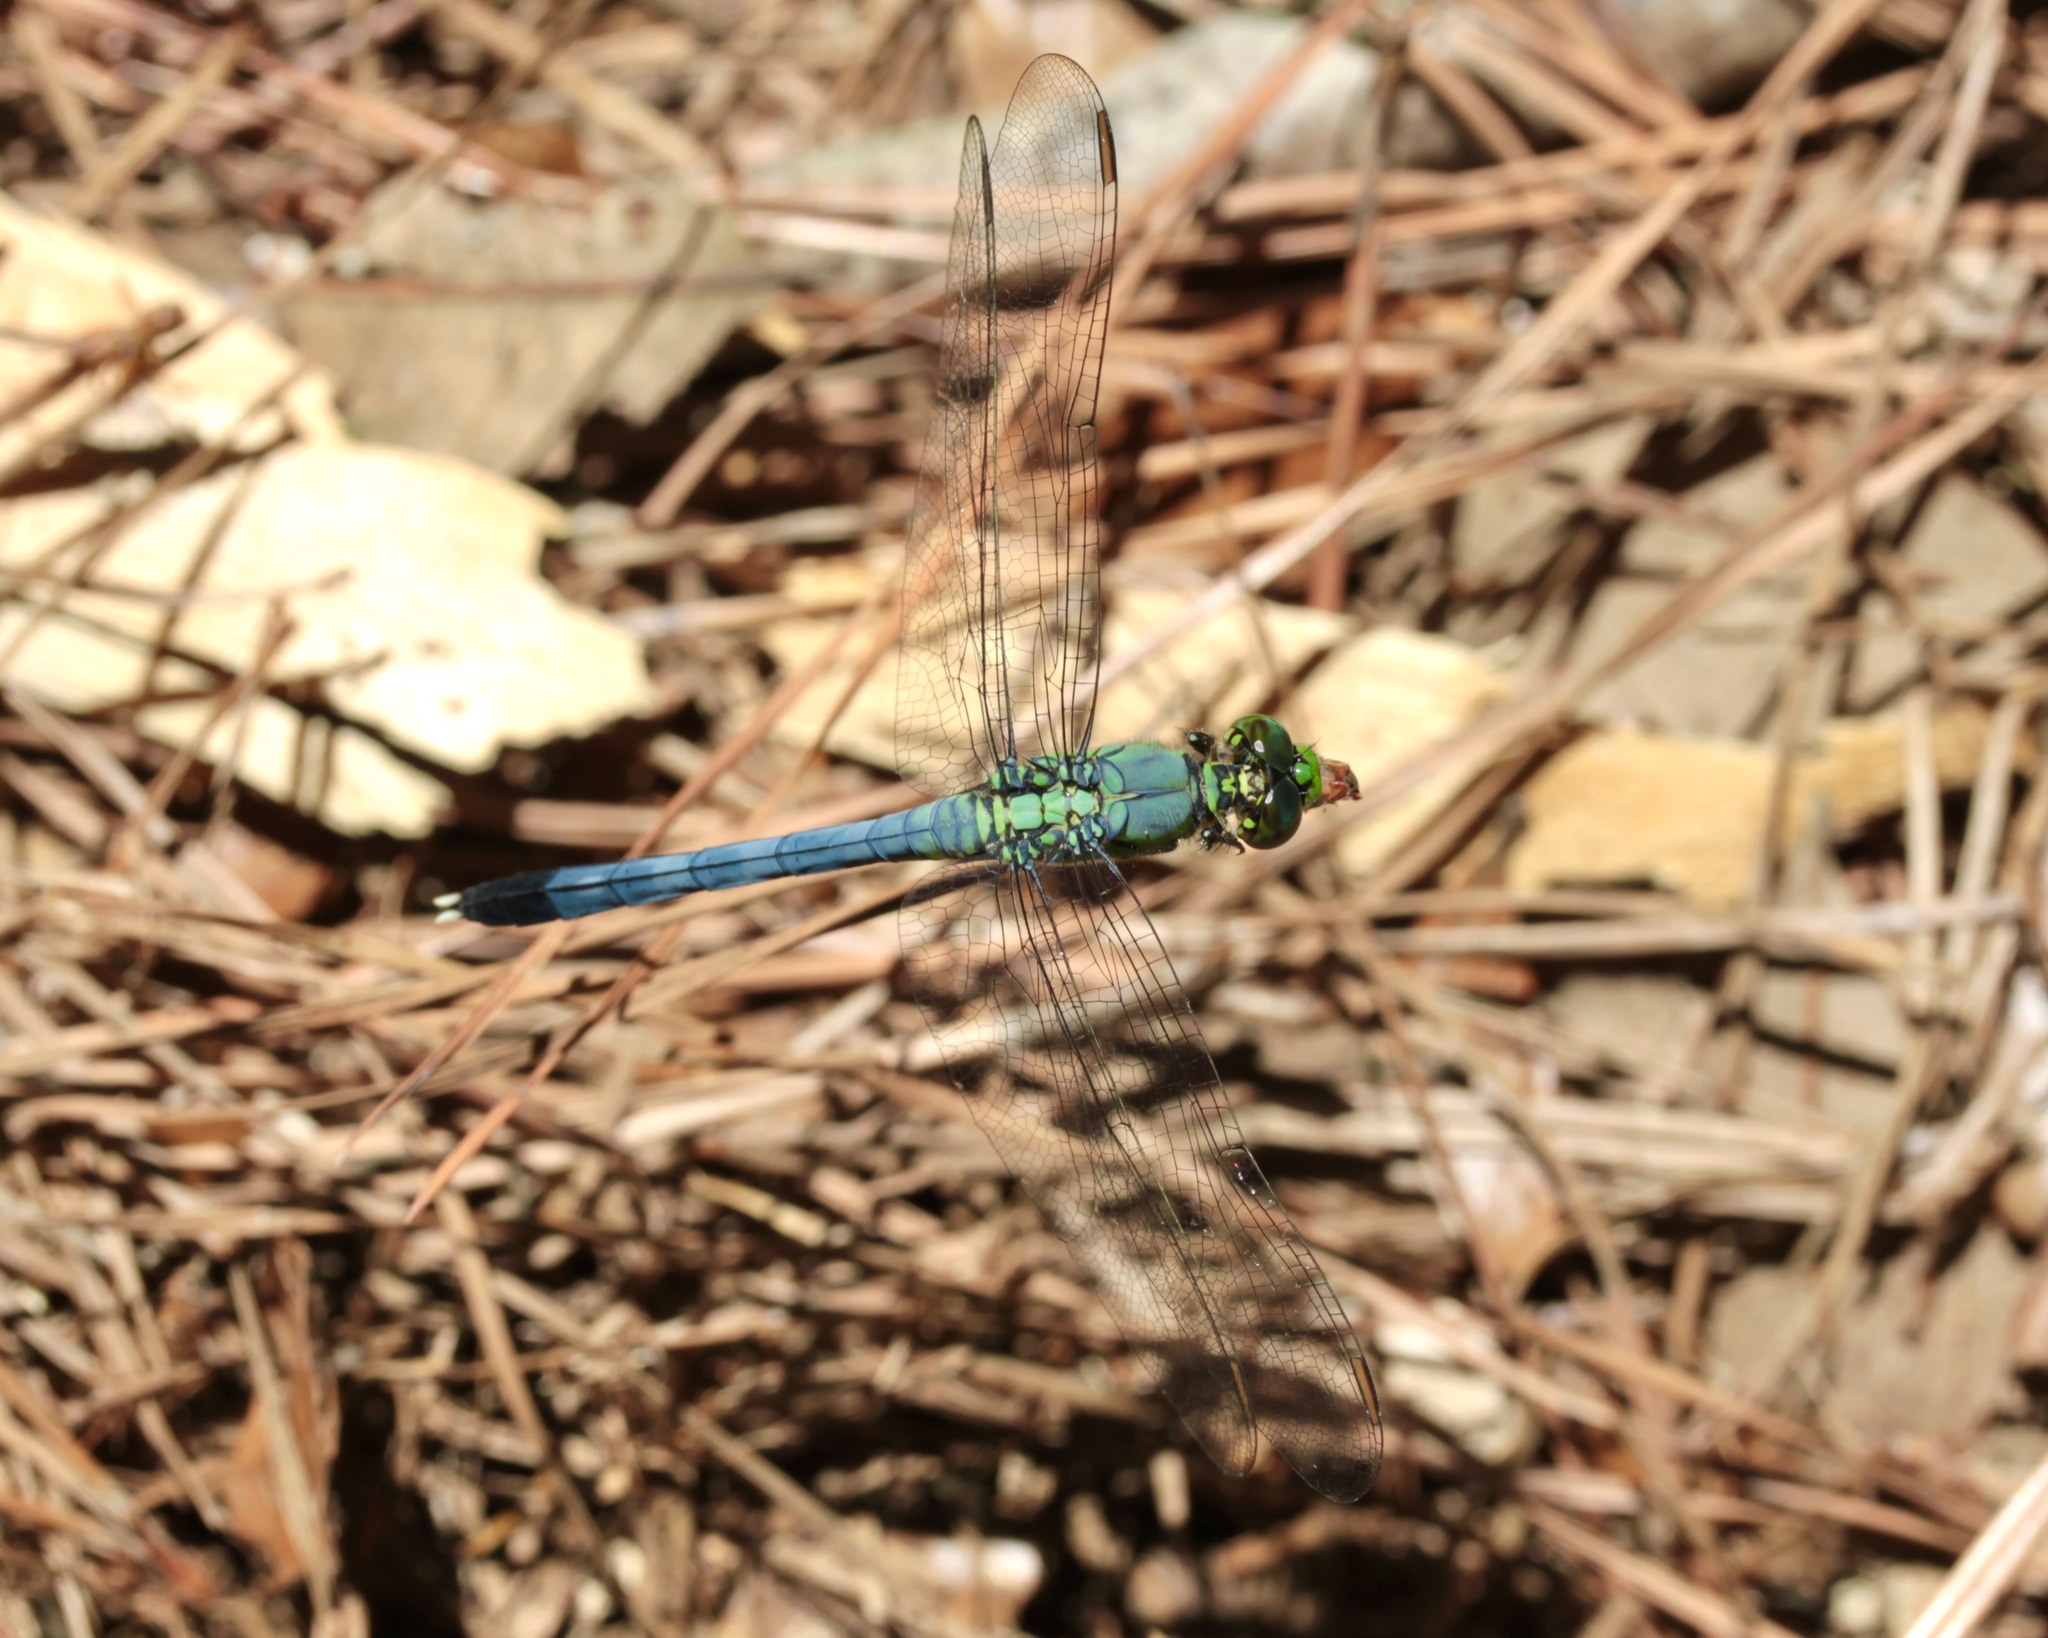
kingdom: Animalia
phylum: Arthropoda
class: Insecta
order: Odonata
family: Libellulidae
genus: Erythemis
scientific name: Erythemis simplicicollis
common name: Eastern pondhawk
